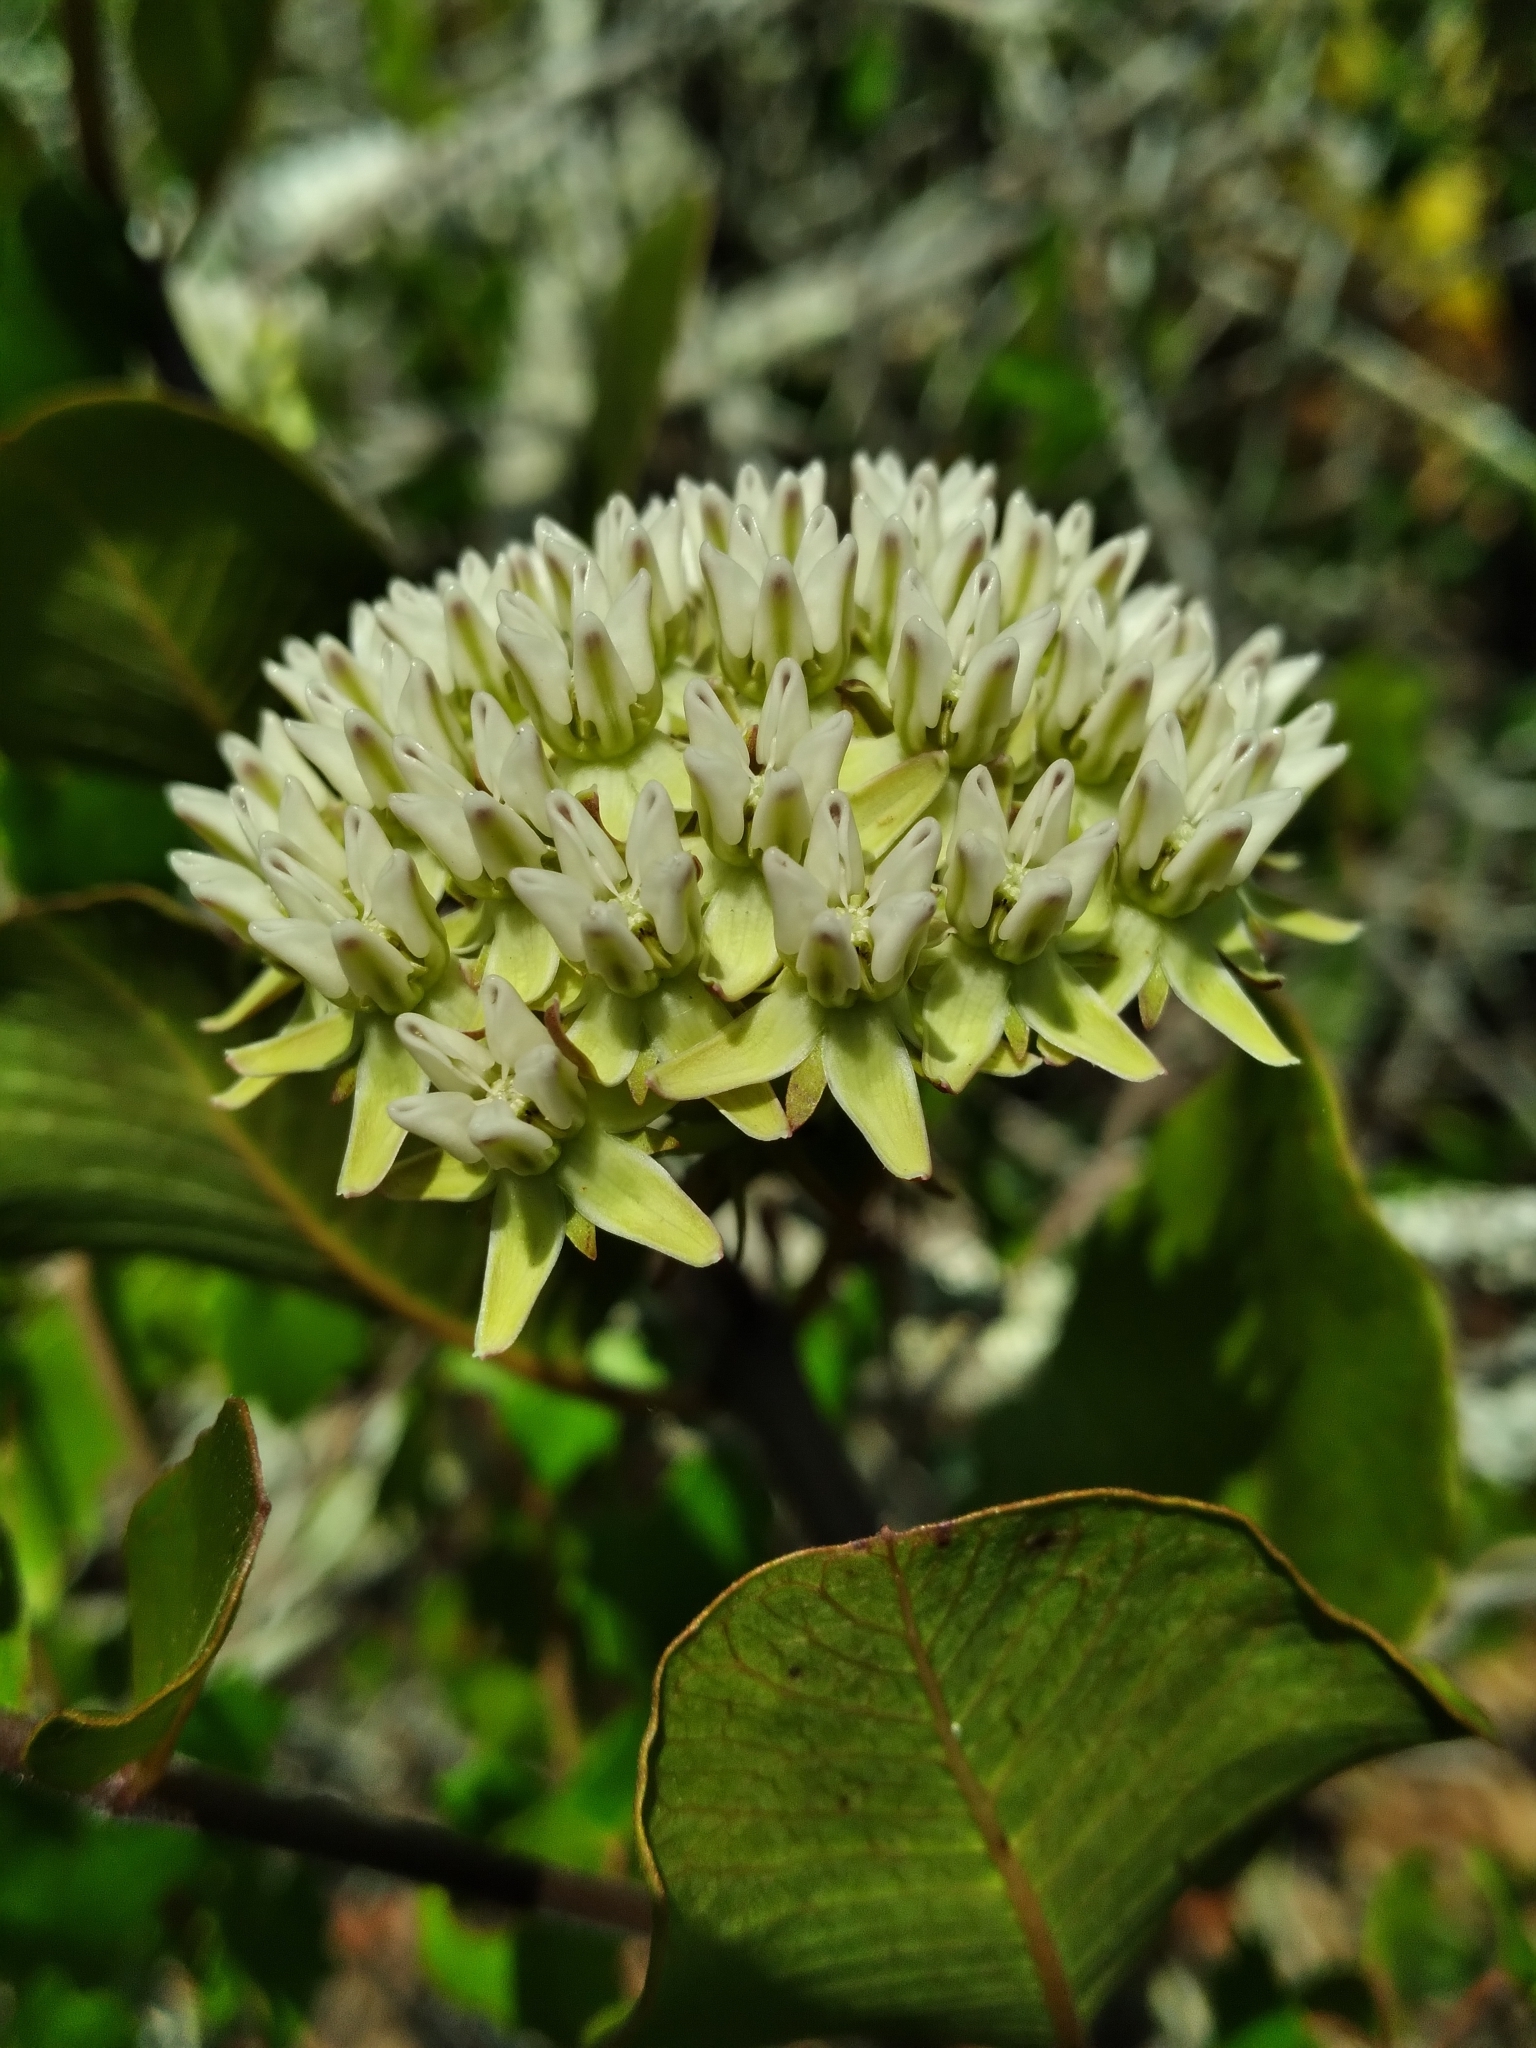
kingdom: Plantae
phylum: Tracheophyta
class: Magnoliopsida
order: Gentianales
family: Apocynaceae
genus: Asclepias
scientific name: Asclepias curtissii
